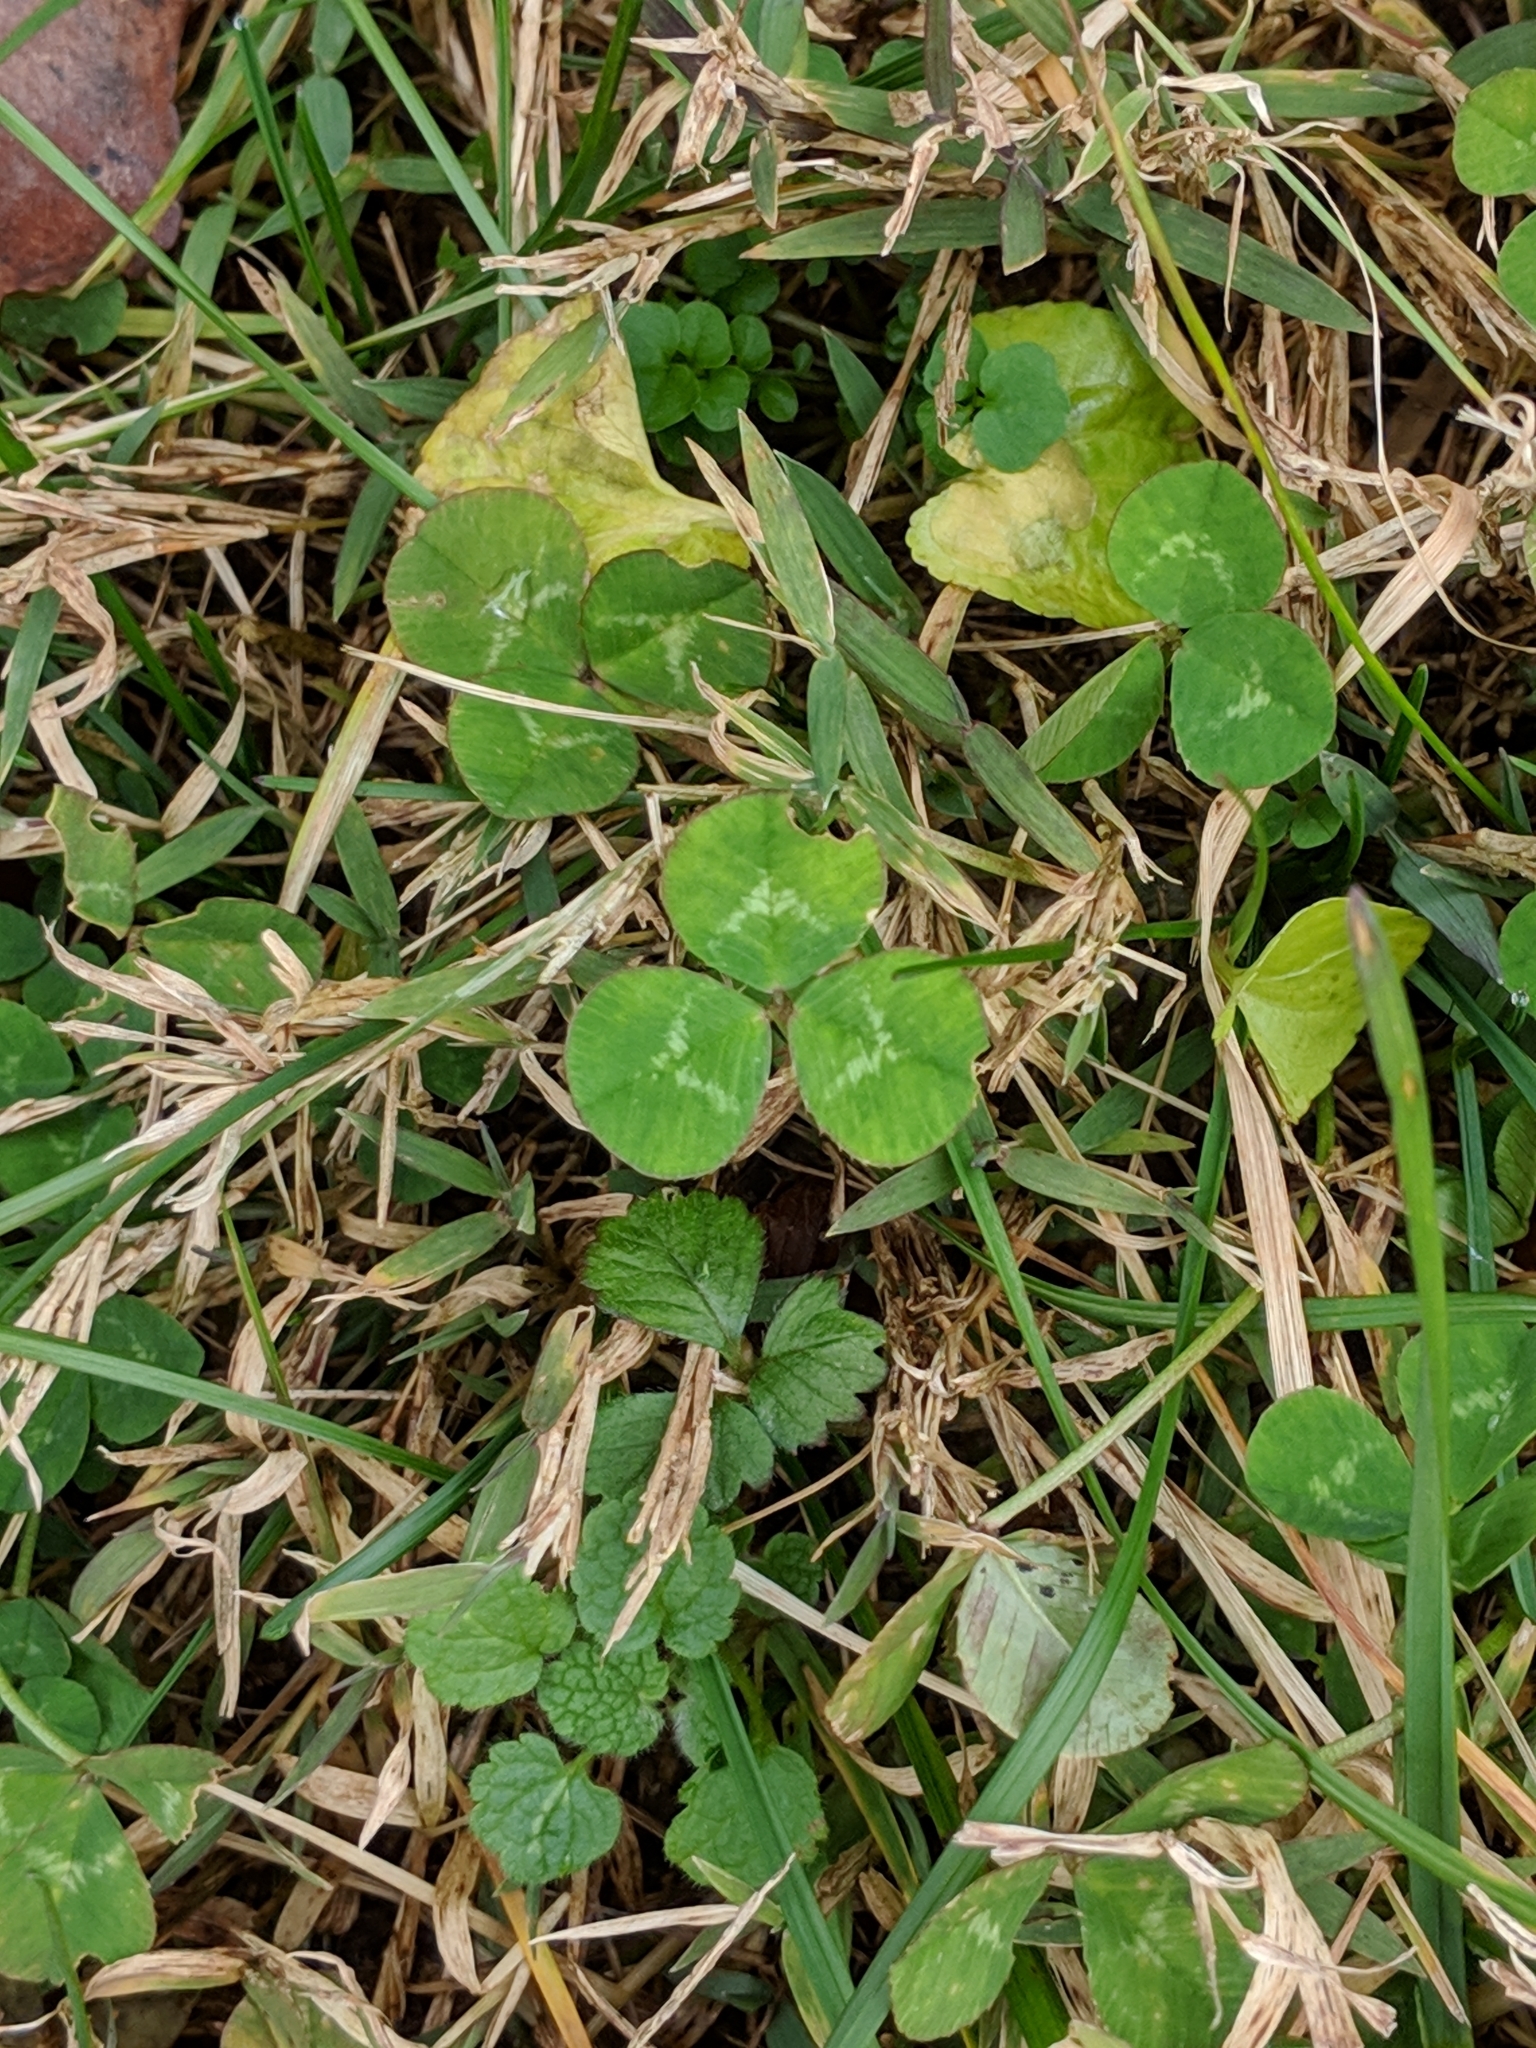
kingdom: Plantae
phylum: Tracheophyta
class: Magnoliopsida
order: Fabales
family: Fabaceae
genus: Trifolium
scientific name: Trifolium repens
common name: White clover
